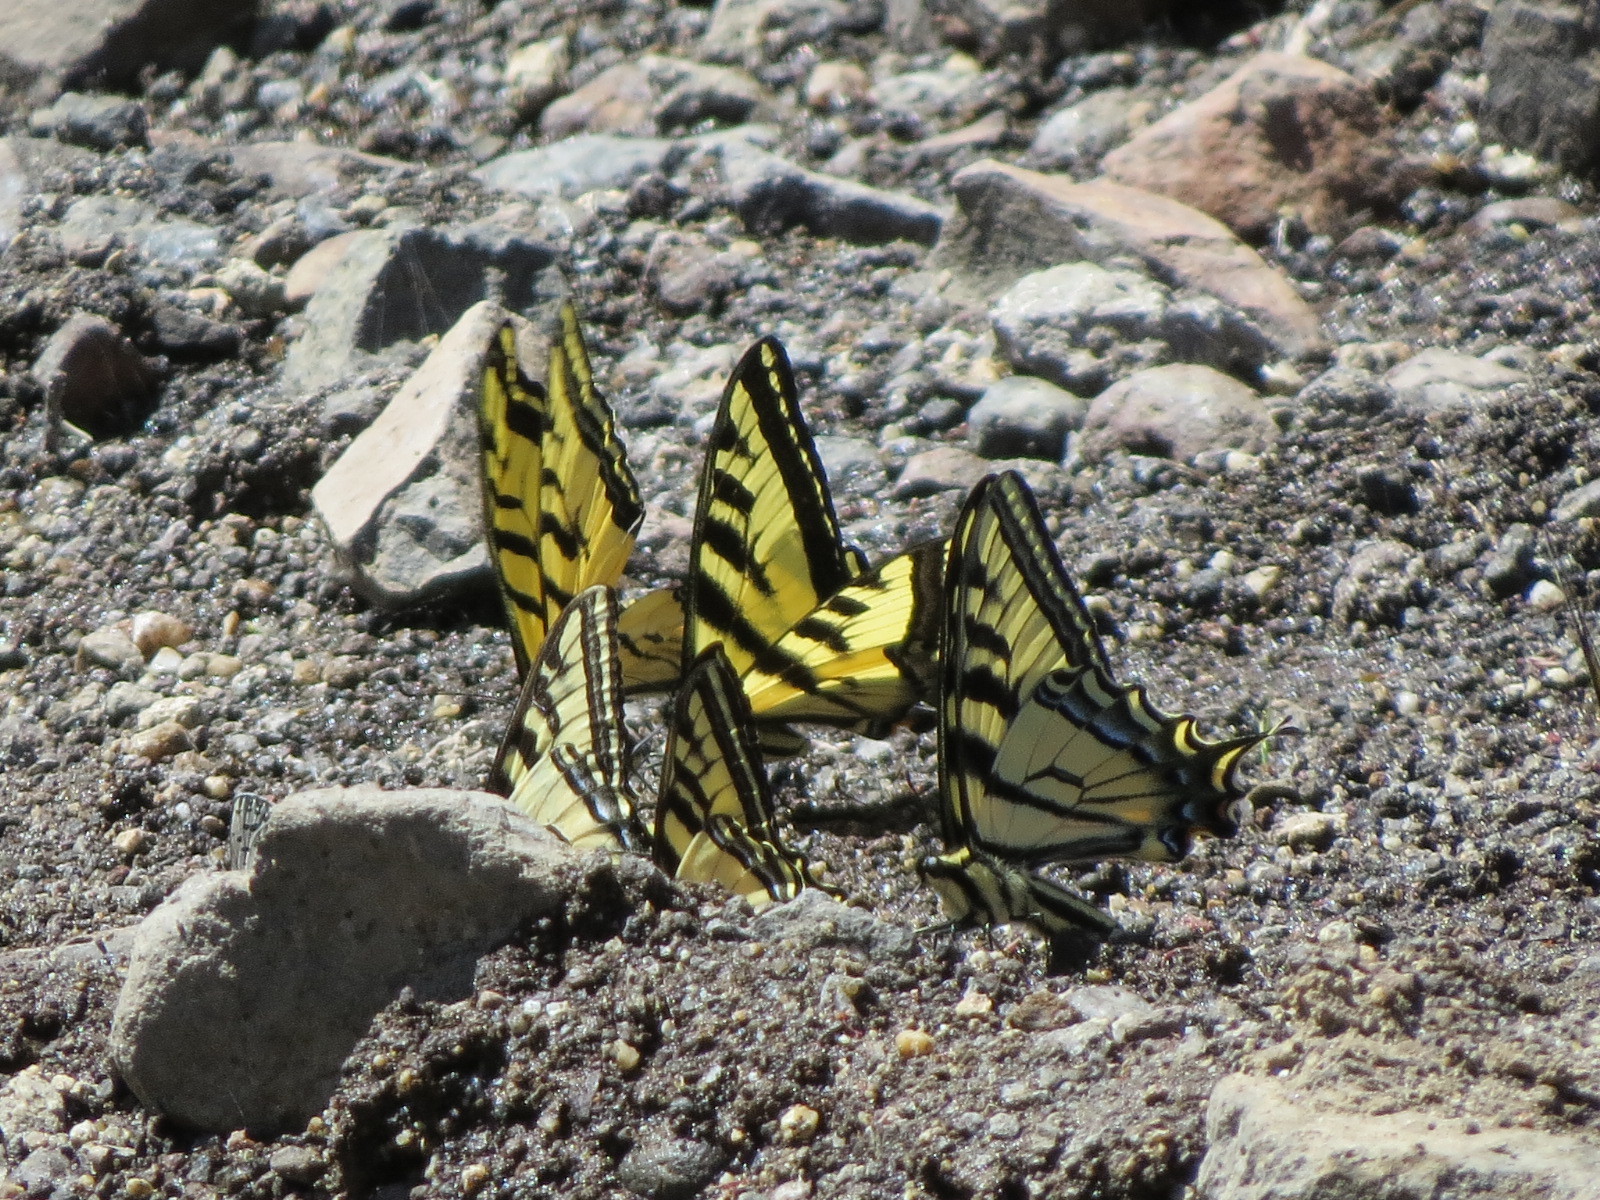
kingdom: Animalia
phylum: Arthropoda
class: Insecta
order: Lepidoptera
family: Papilionidae
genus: Papilio
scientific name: Papilio rutulus
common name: Western tiger swallowtail
